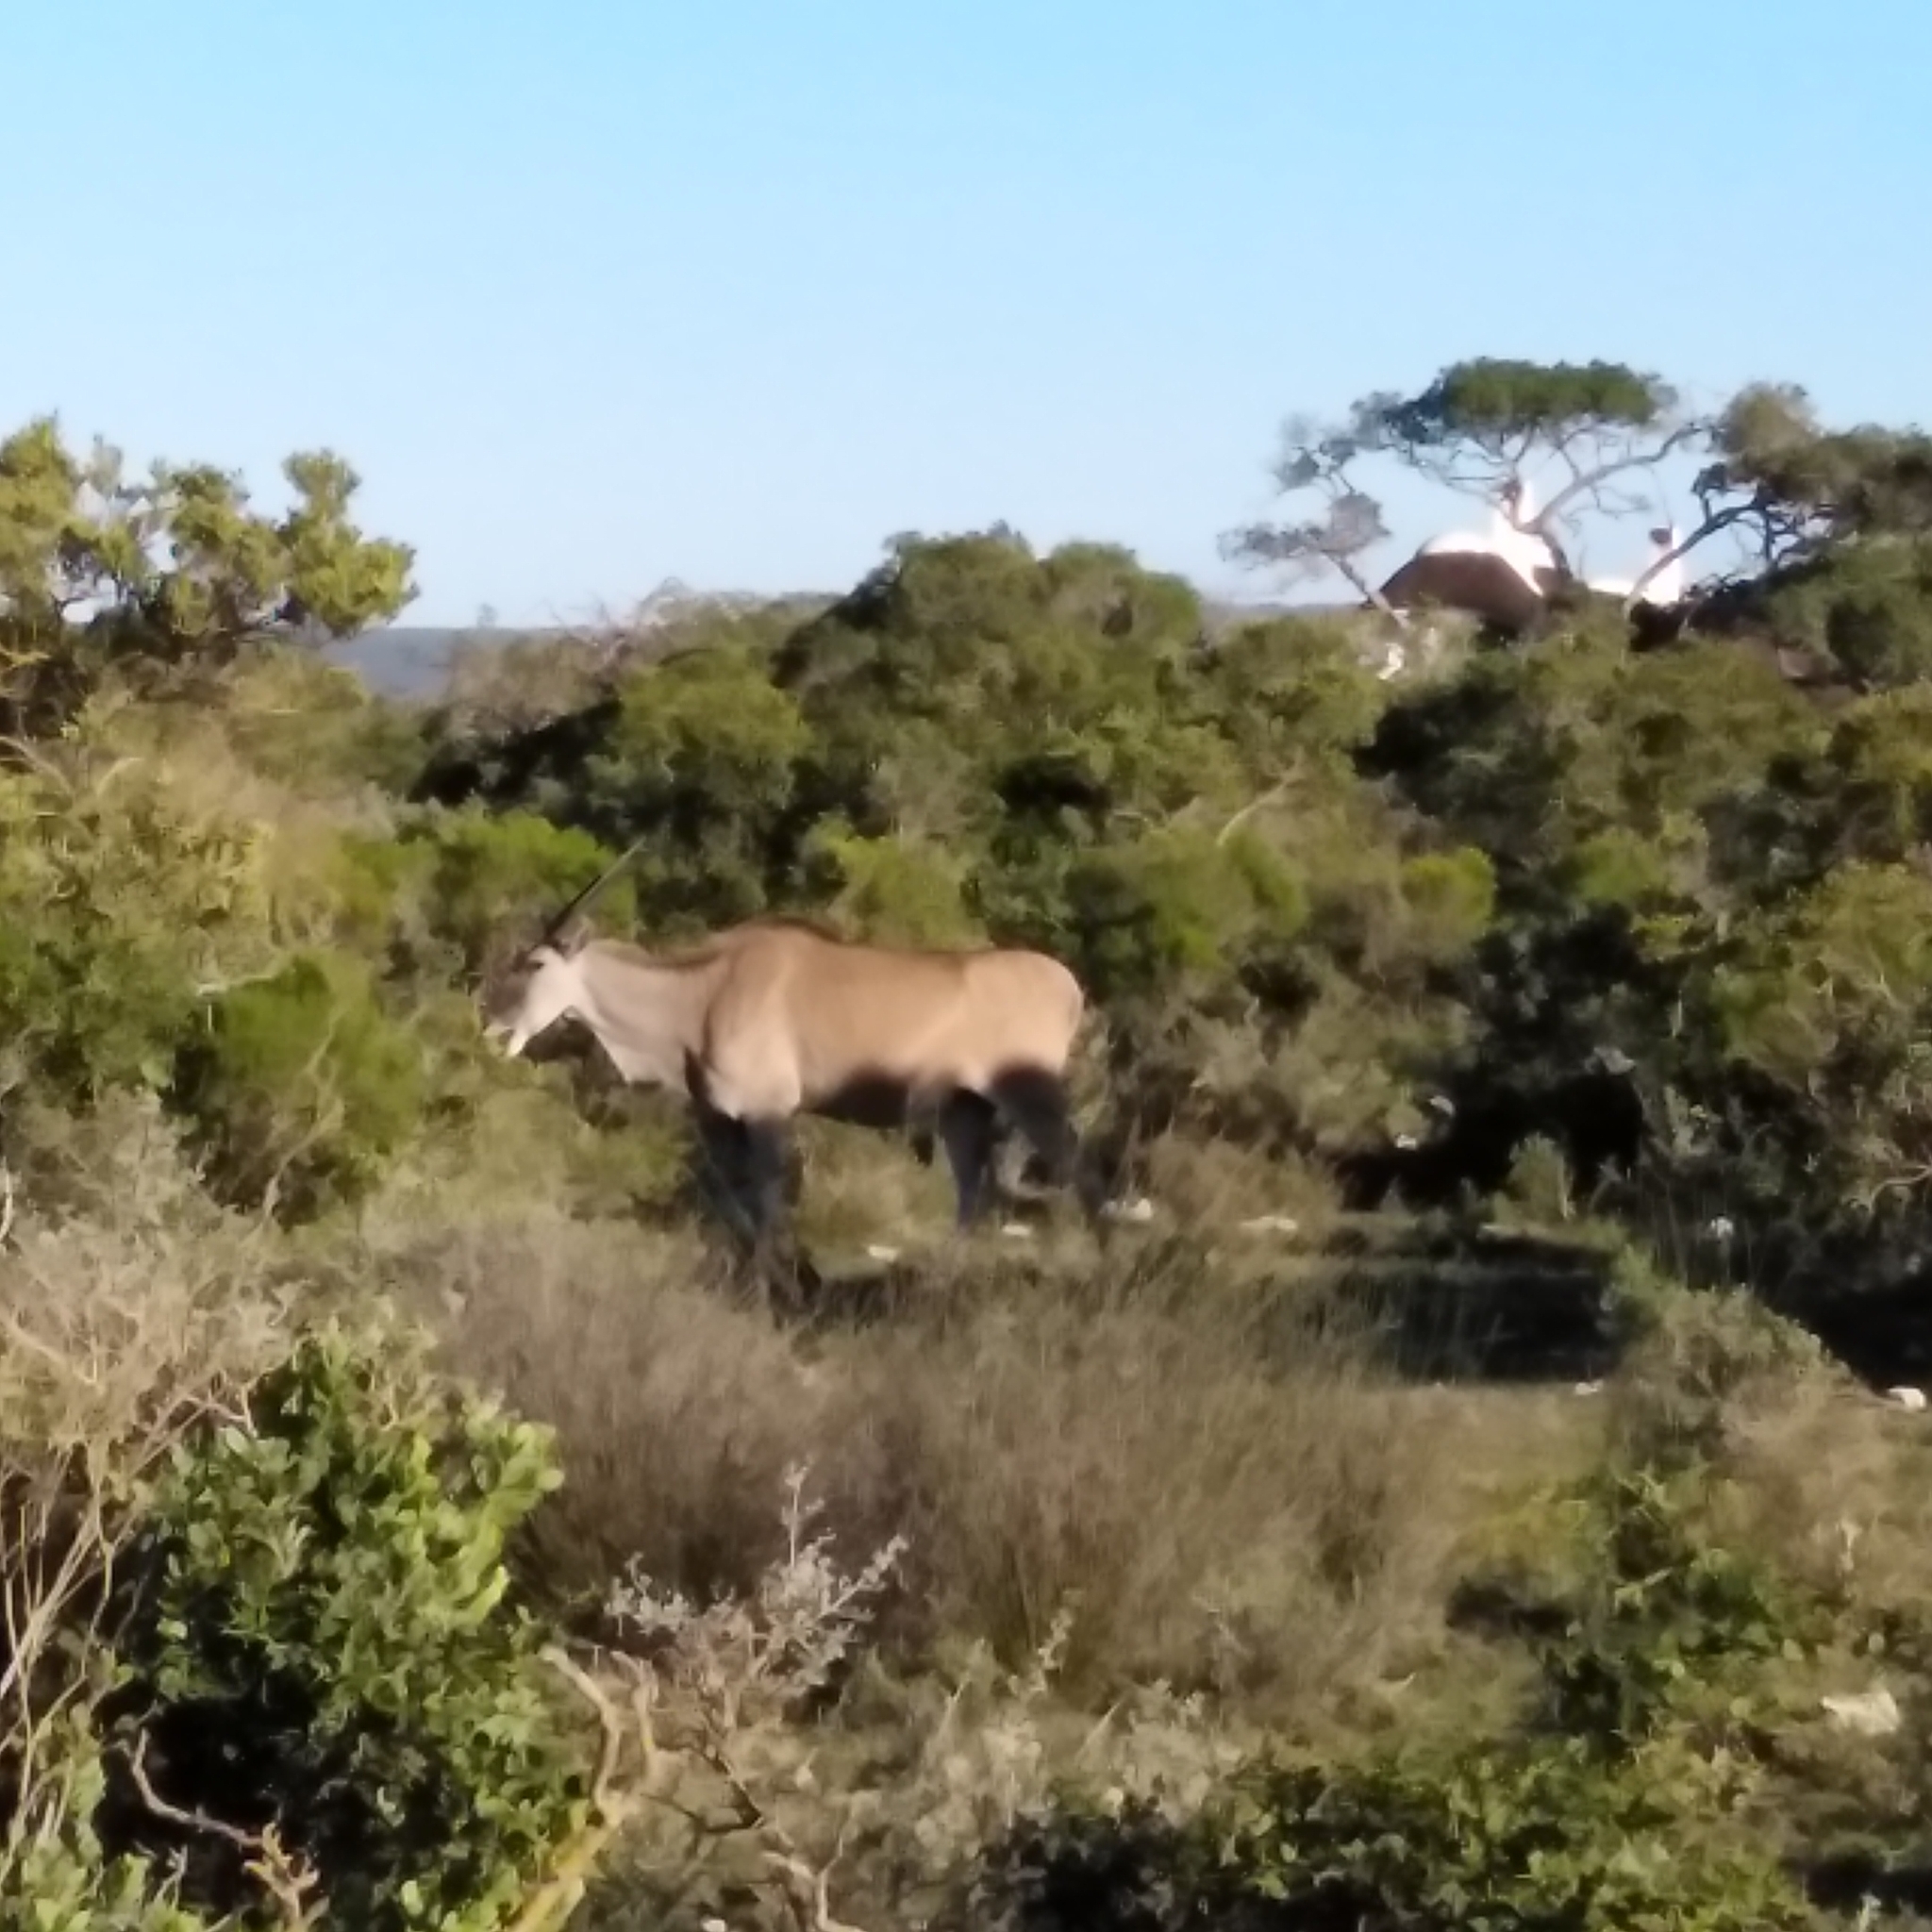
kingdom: Animalia
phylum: Chordata
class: Mammalia
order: Artiodactyla
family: Bovidae
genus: Taurotragus
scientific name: Taurotragus oryx
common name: Common eland
